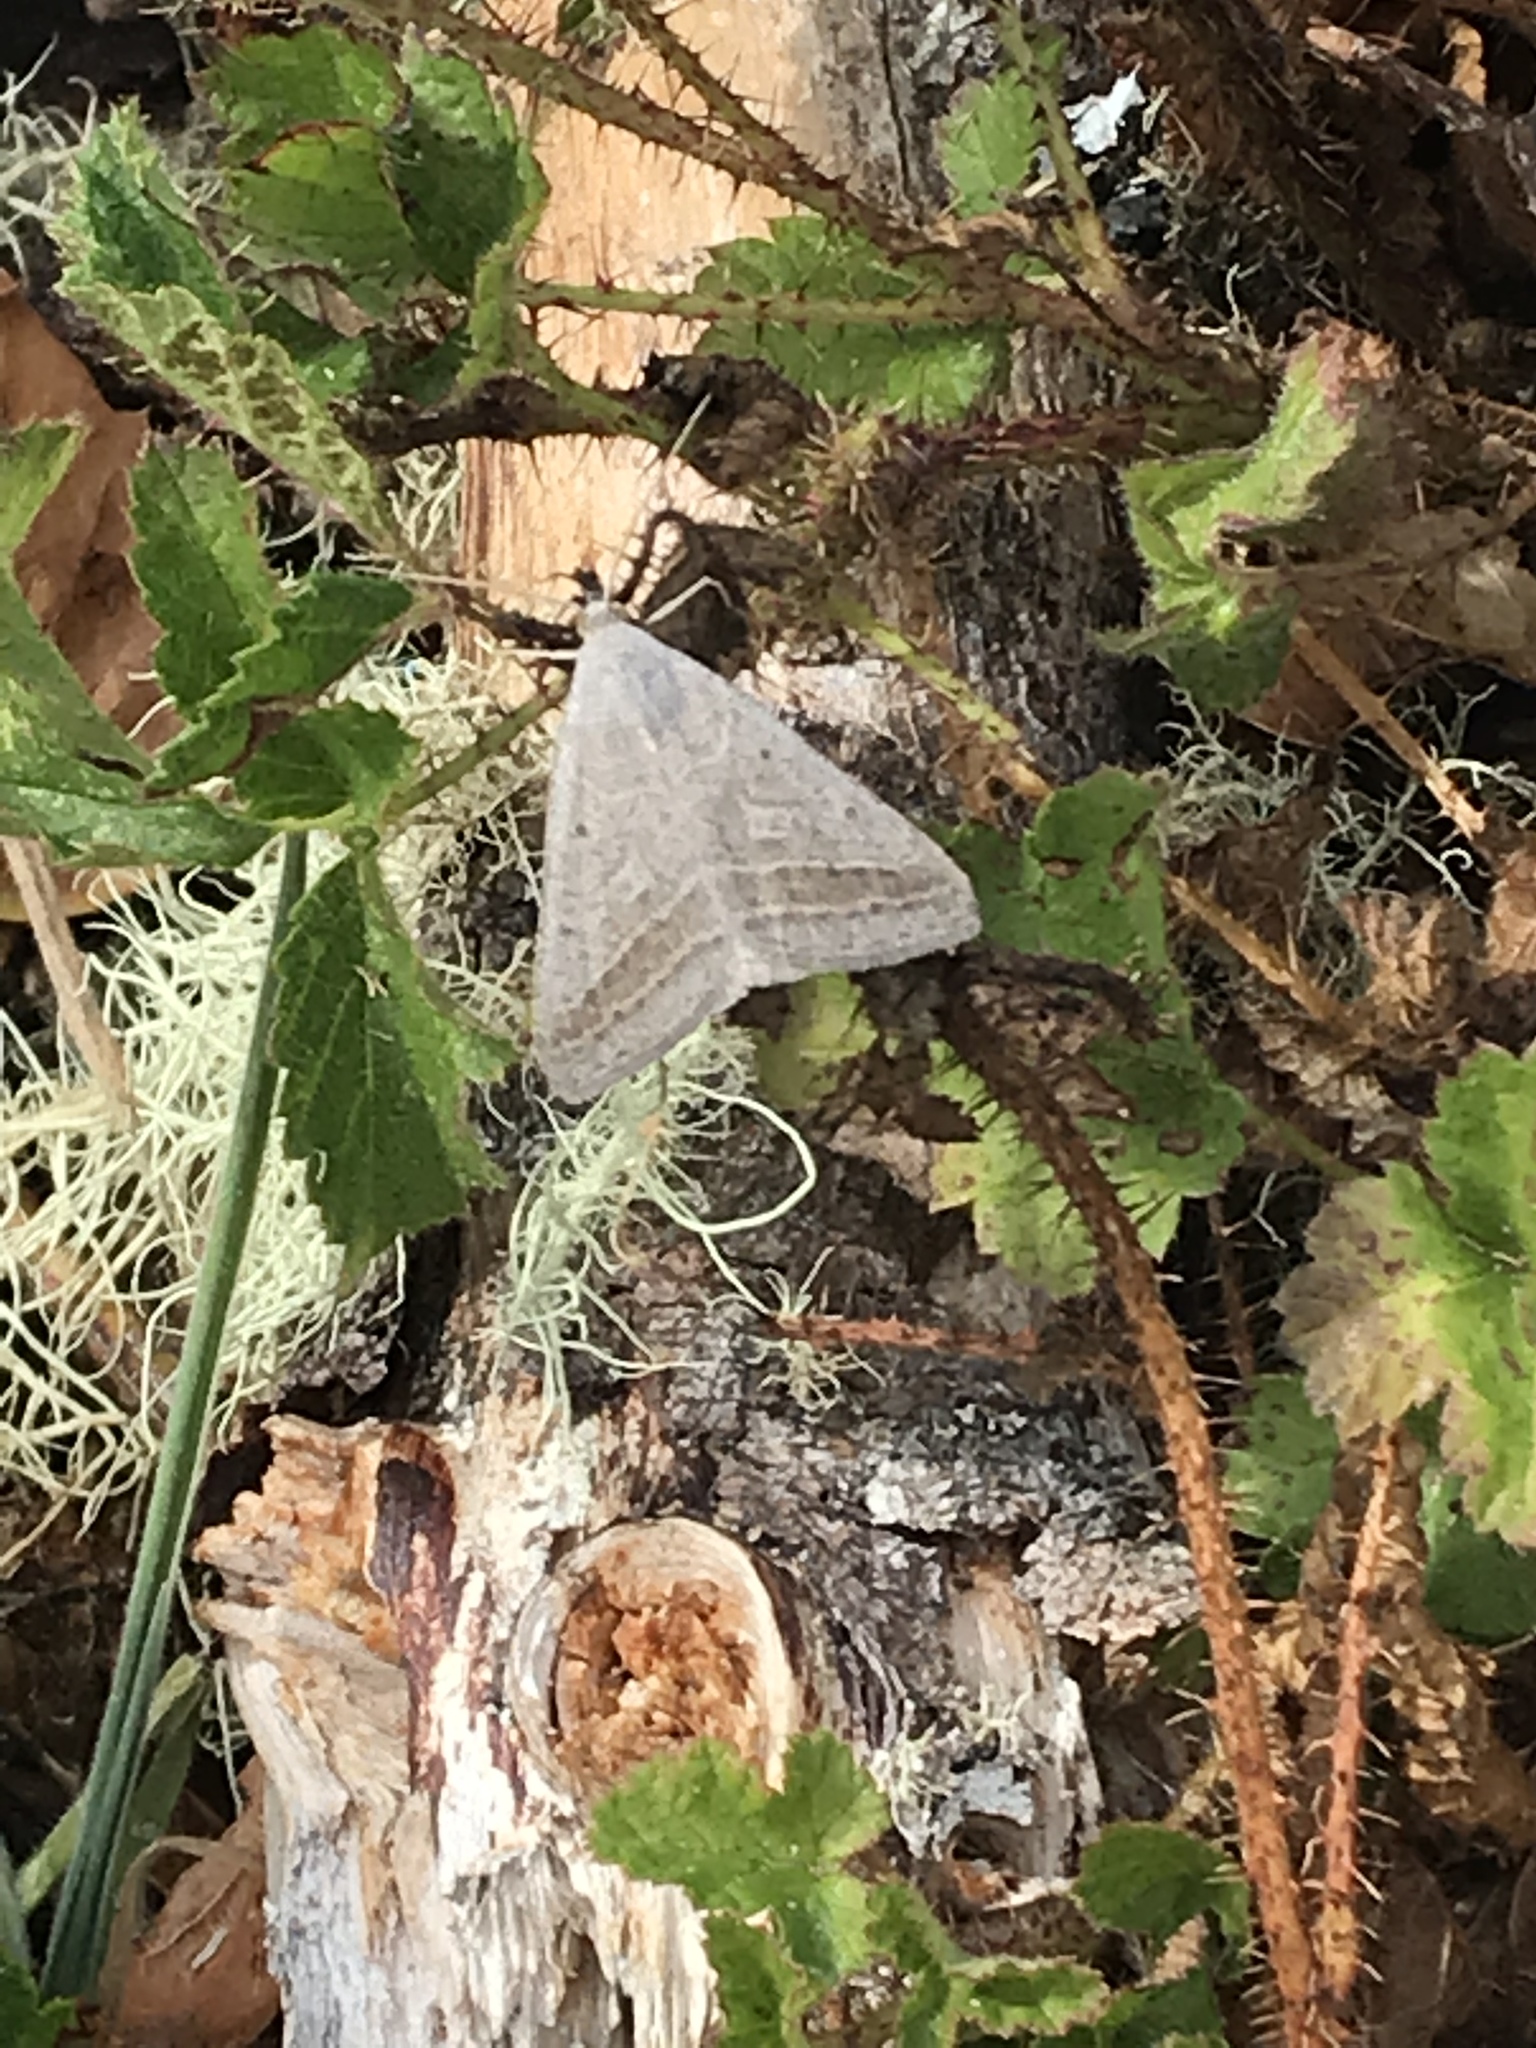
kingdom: Animalia
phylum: Arthropoda
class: Insecta
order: Lepidoptera
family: Erebidae
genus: Caenurgia
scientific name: Caenurgia togataria
